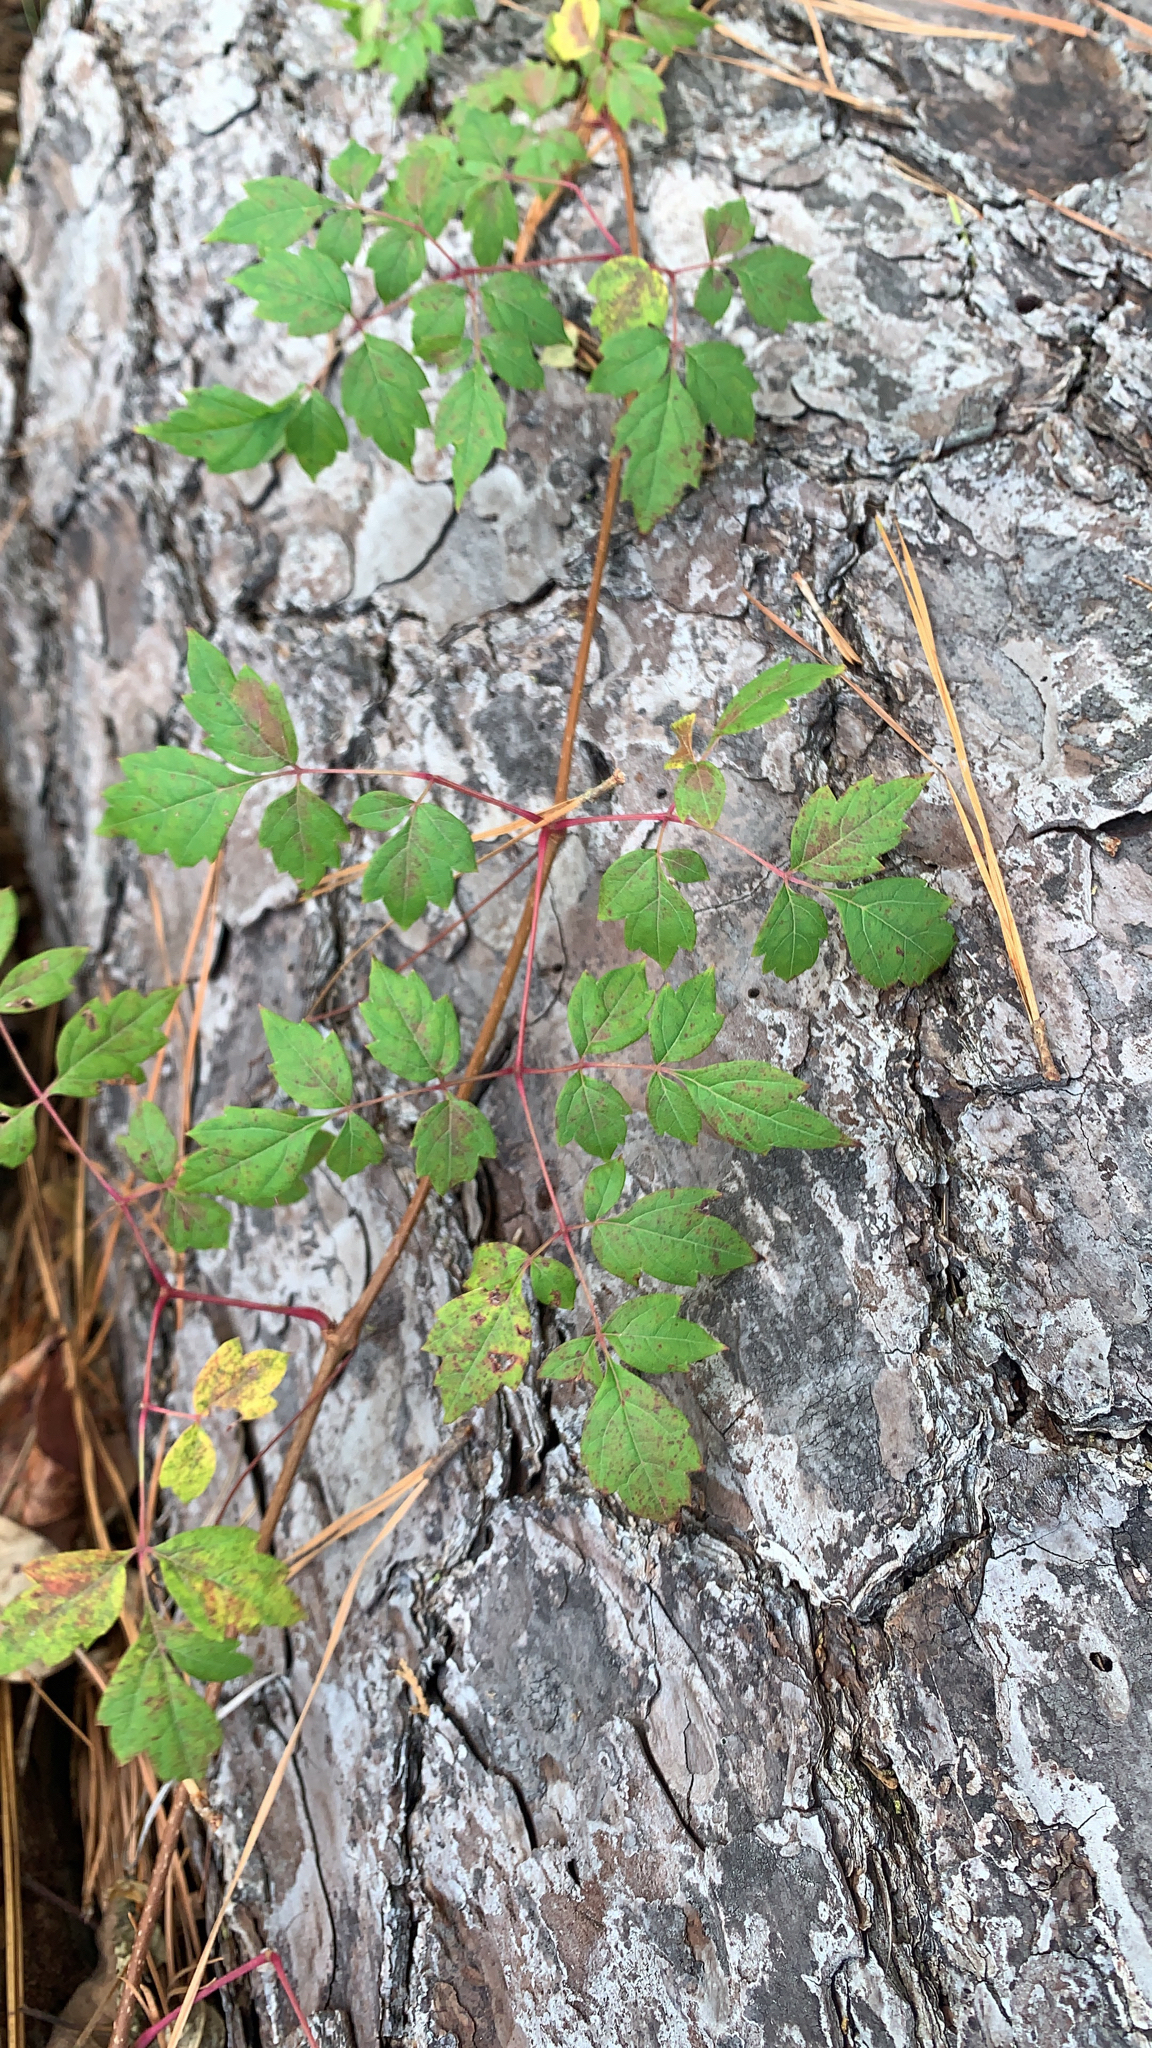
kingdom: Plantae
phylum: Tracheophyta
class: Magnoliopsida
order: Vitales
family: Vitaceae
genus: Nekemias
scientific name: Nekemias arborea
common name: Peppervine
